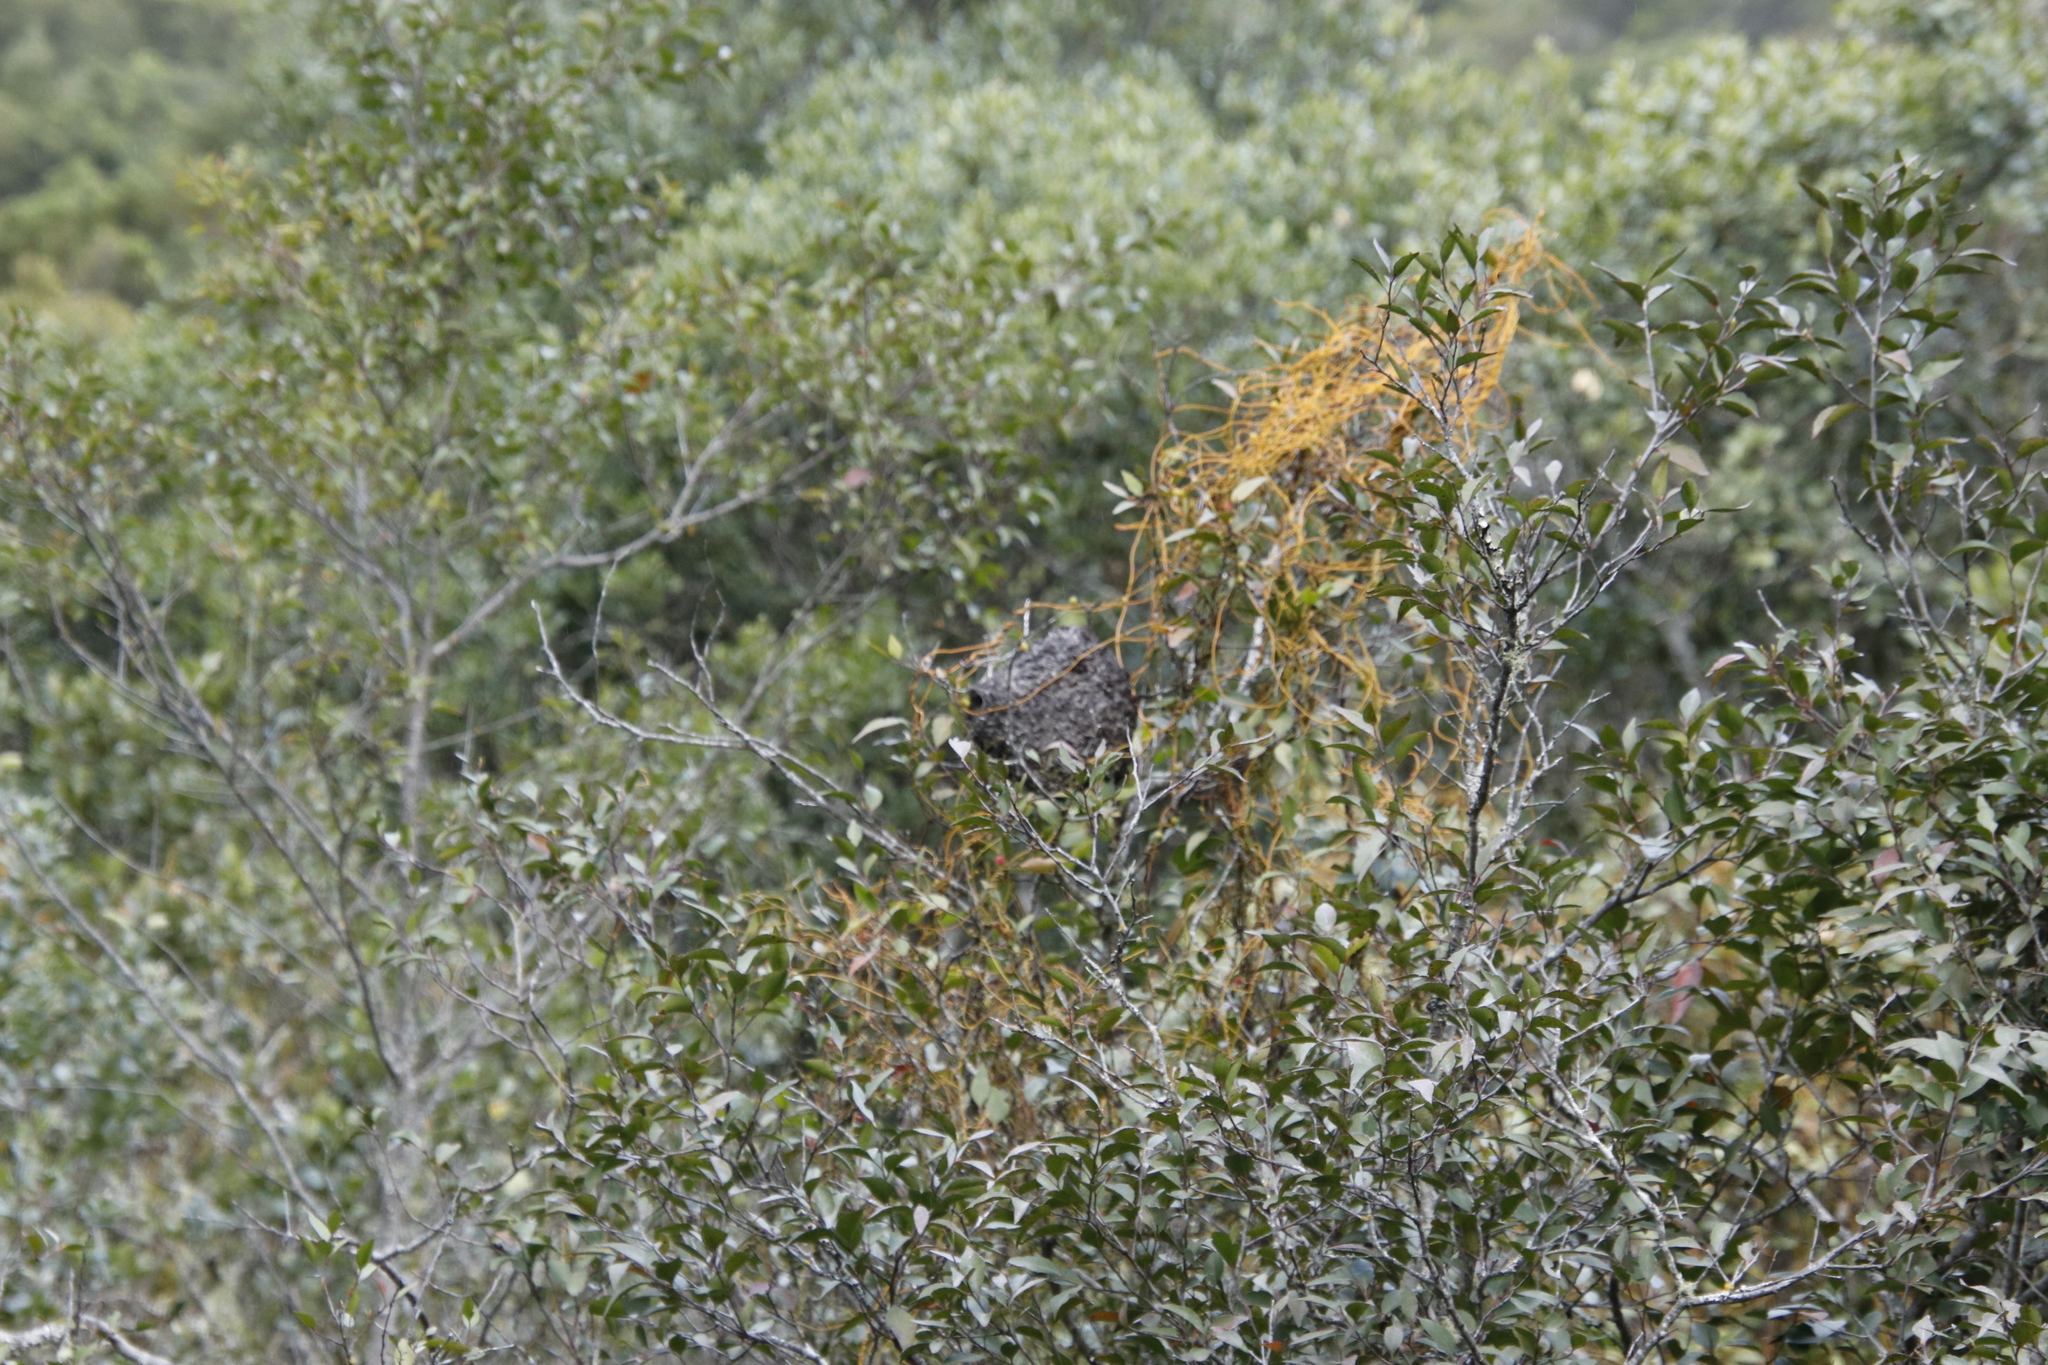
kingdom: Animalia
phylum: Arthropoda
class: Insecta
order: Hymenoptera
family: Formicidae
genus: Crematogaster
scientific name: Crematogaster peringueyi
